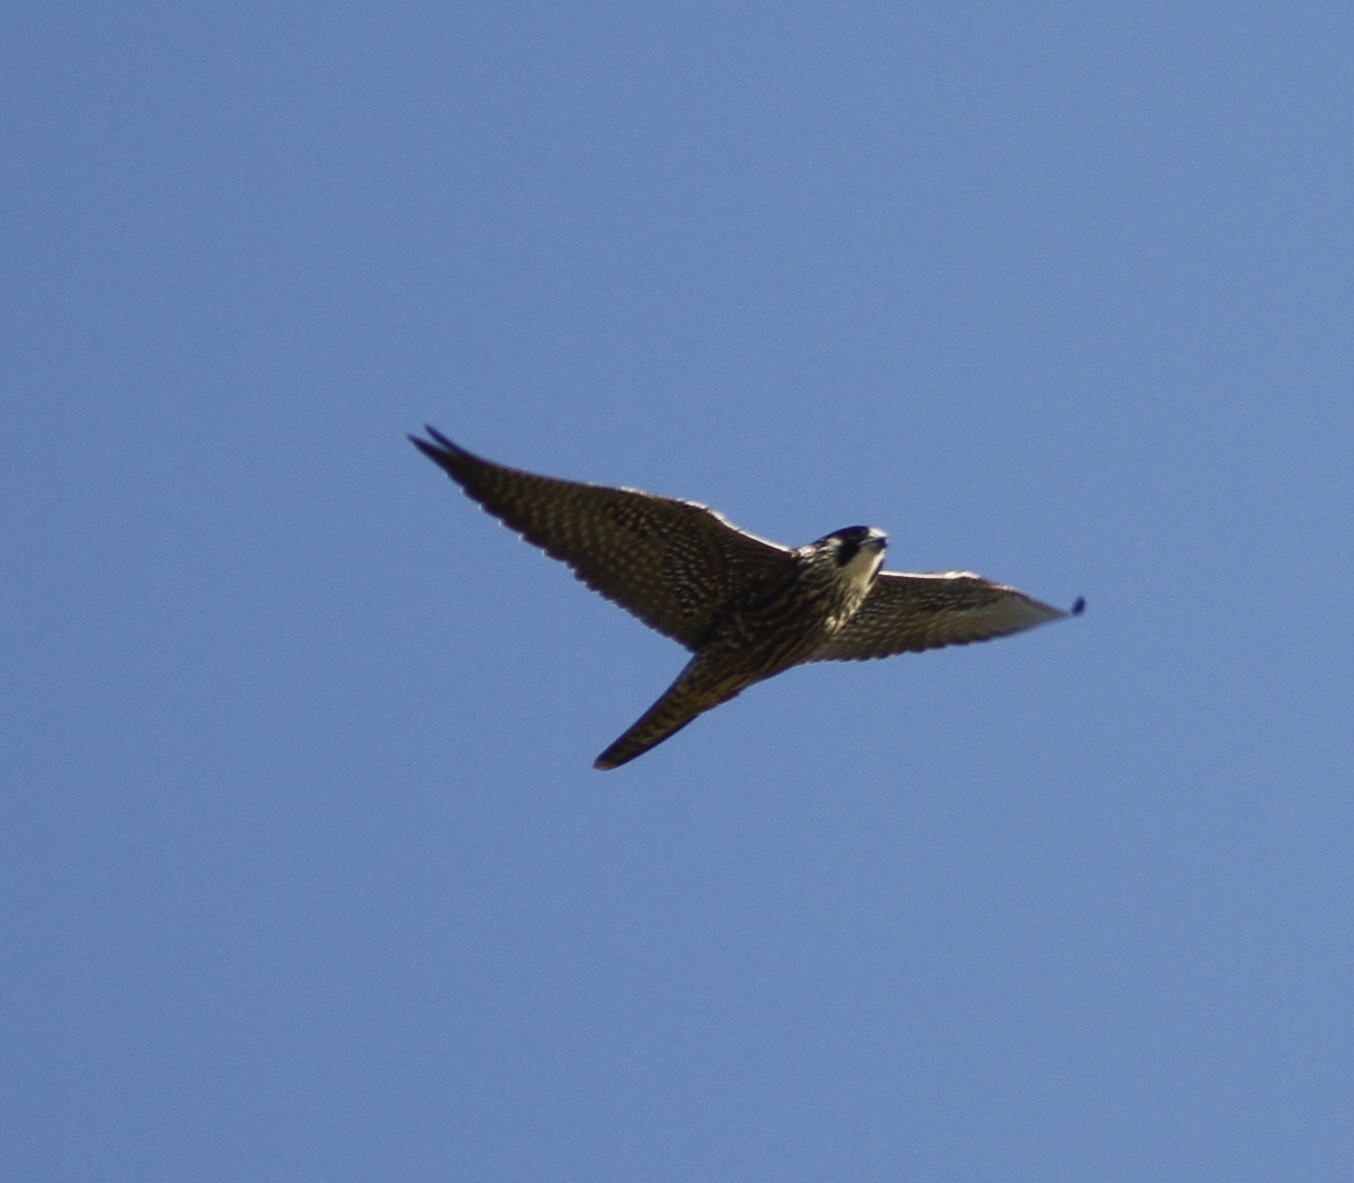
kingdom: Animalia
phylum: Chordata
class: Aves
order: Falconiformes
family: Falconidae
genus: Falco
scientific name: Falco peregrinus
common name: Peregrine falcon
